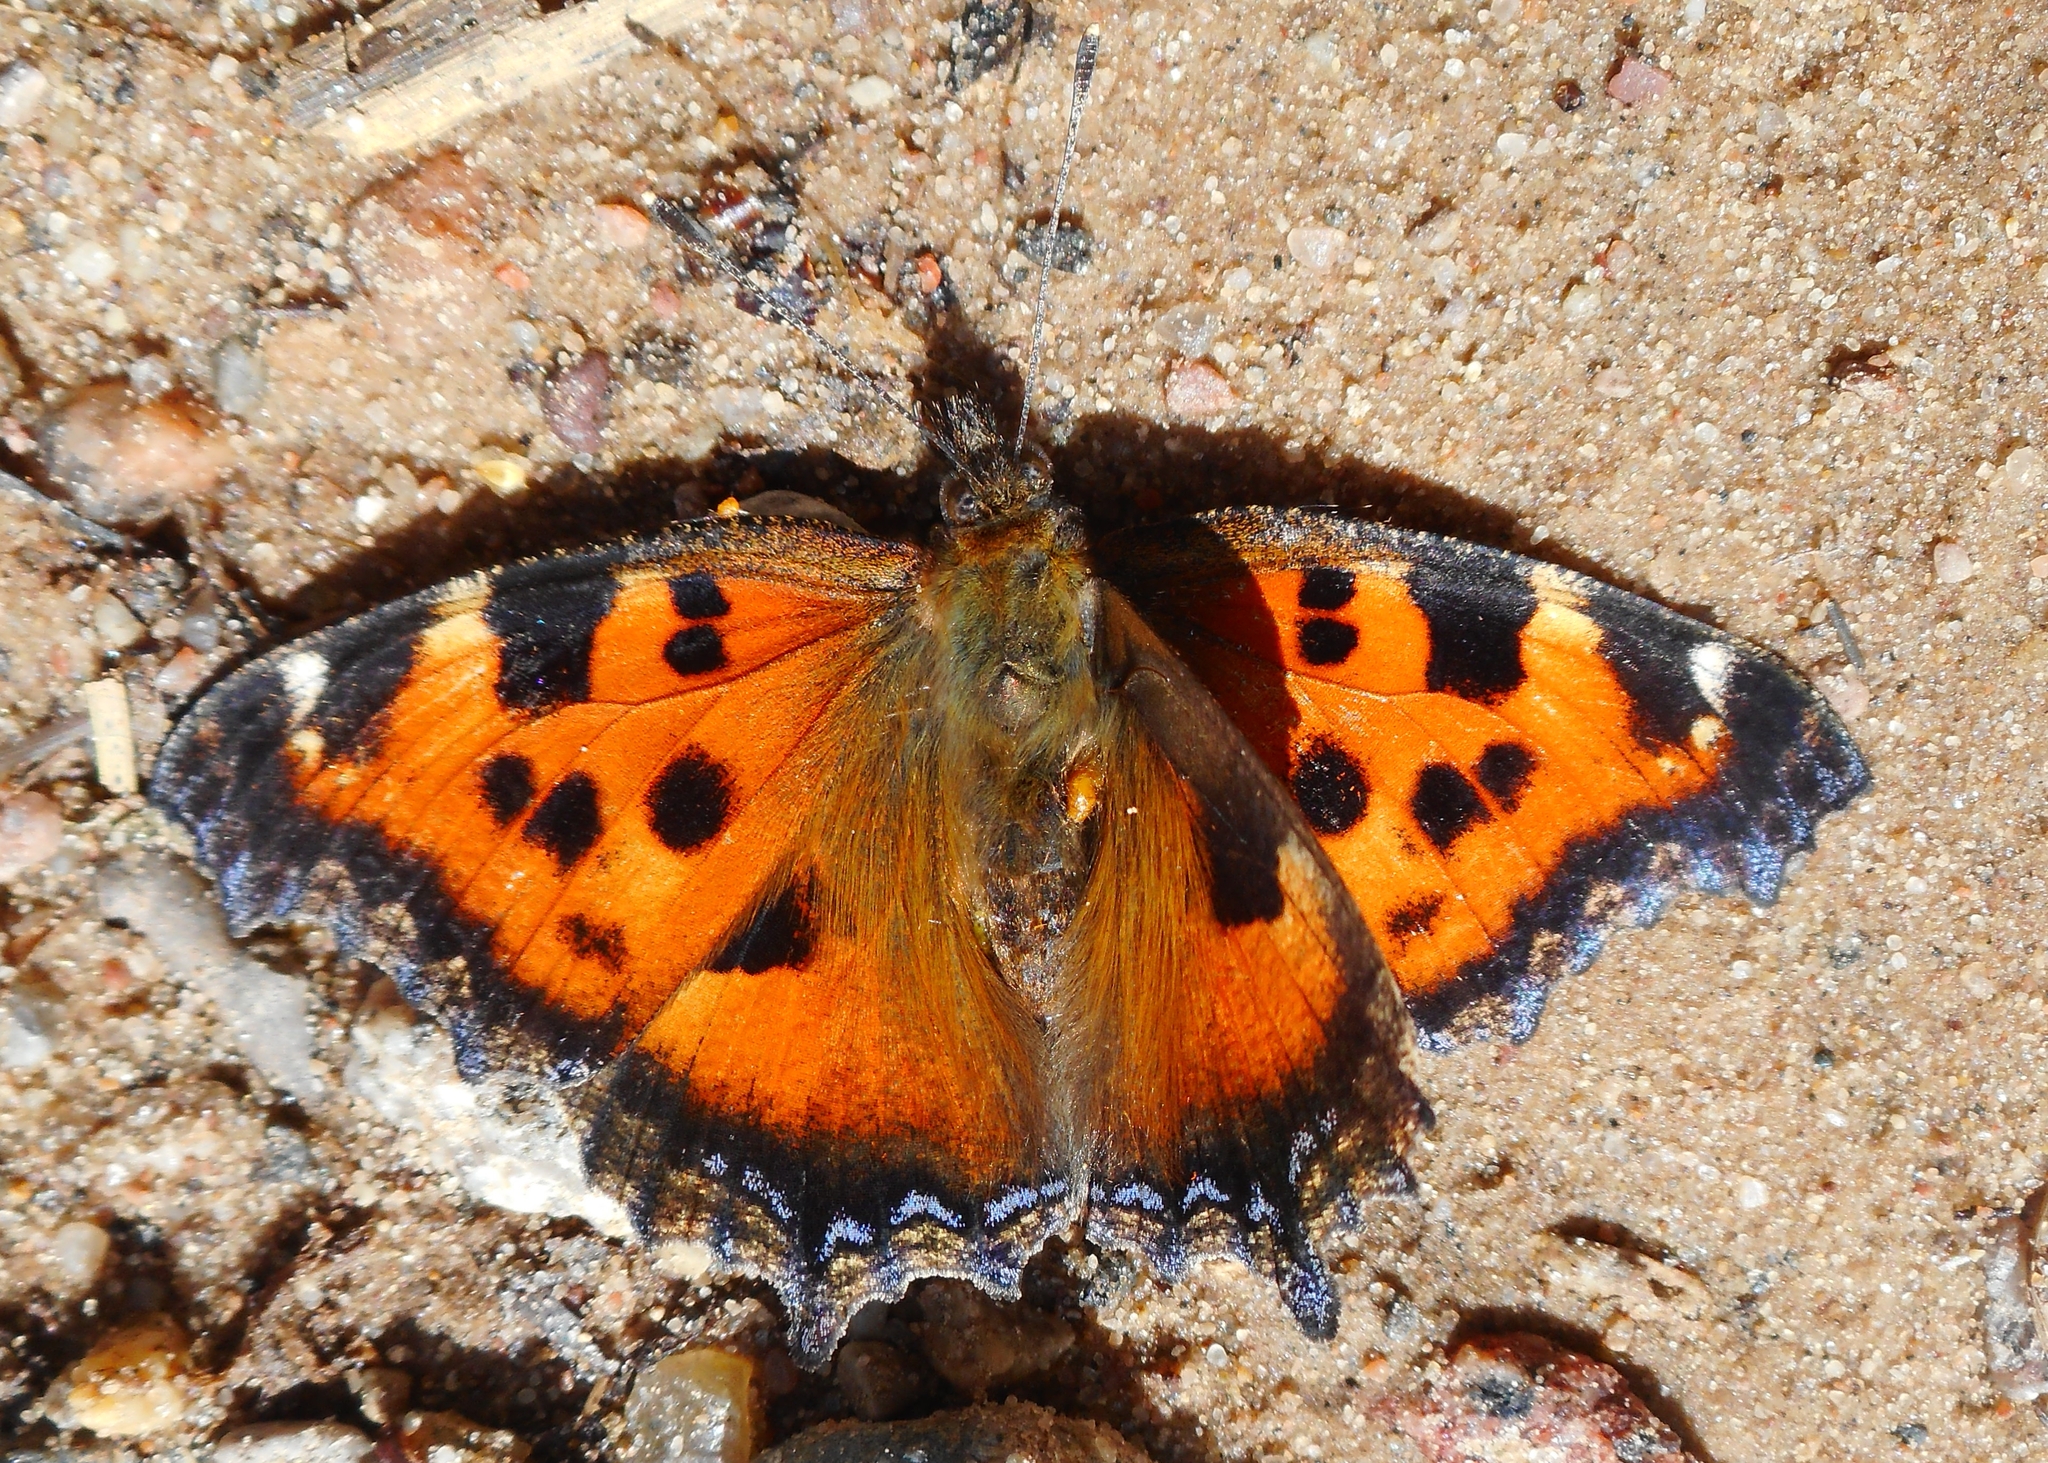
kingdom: Animalia
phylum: Arthropoda
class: Insecta
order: Lepidoptera
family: Nymphalidae
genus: Nymphalis
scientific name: Nymphalis xanthomelas
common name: Scarce tortoiseshell
